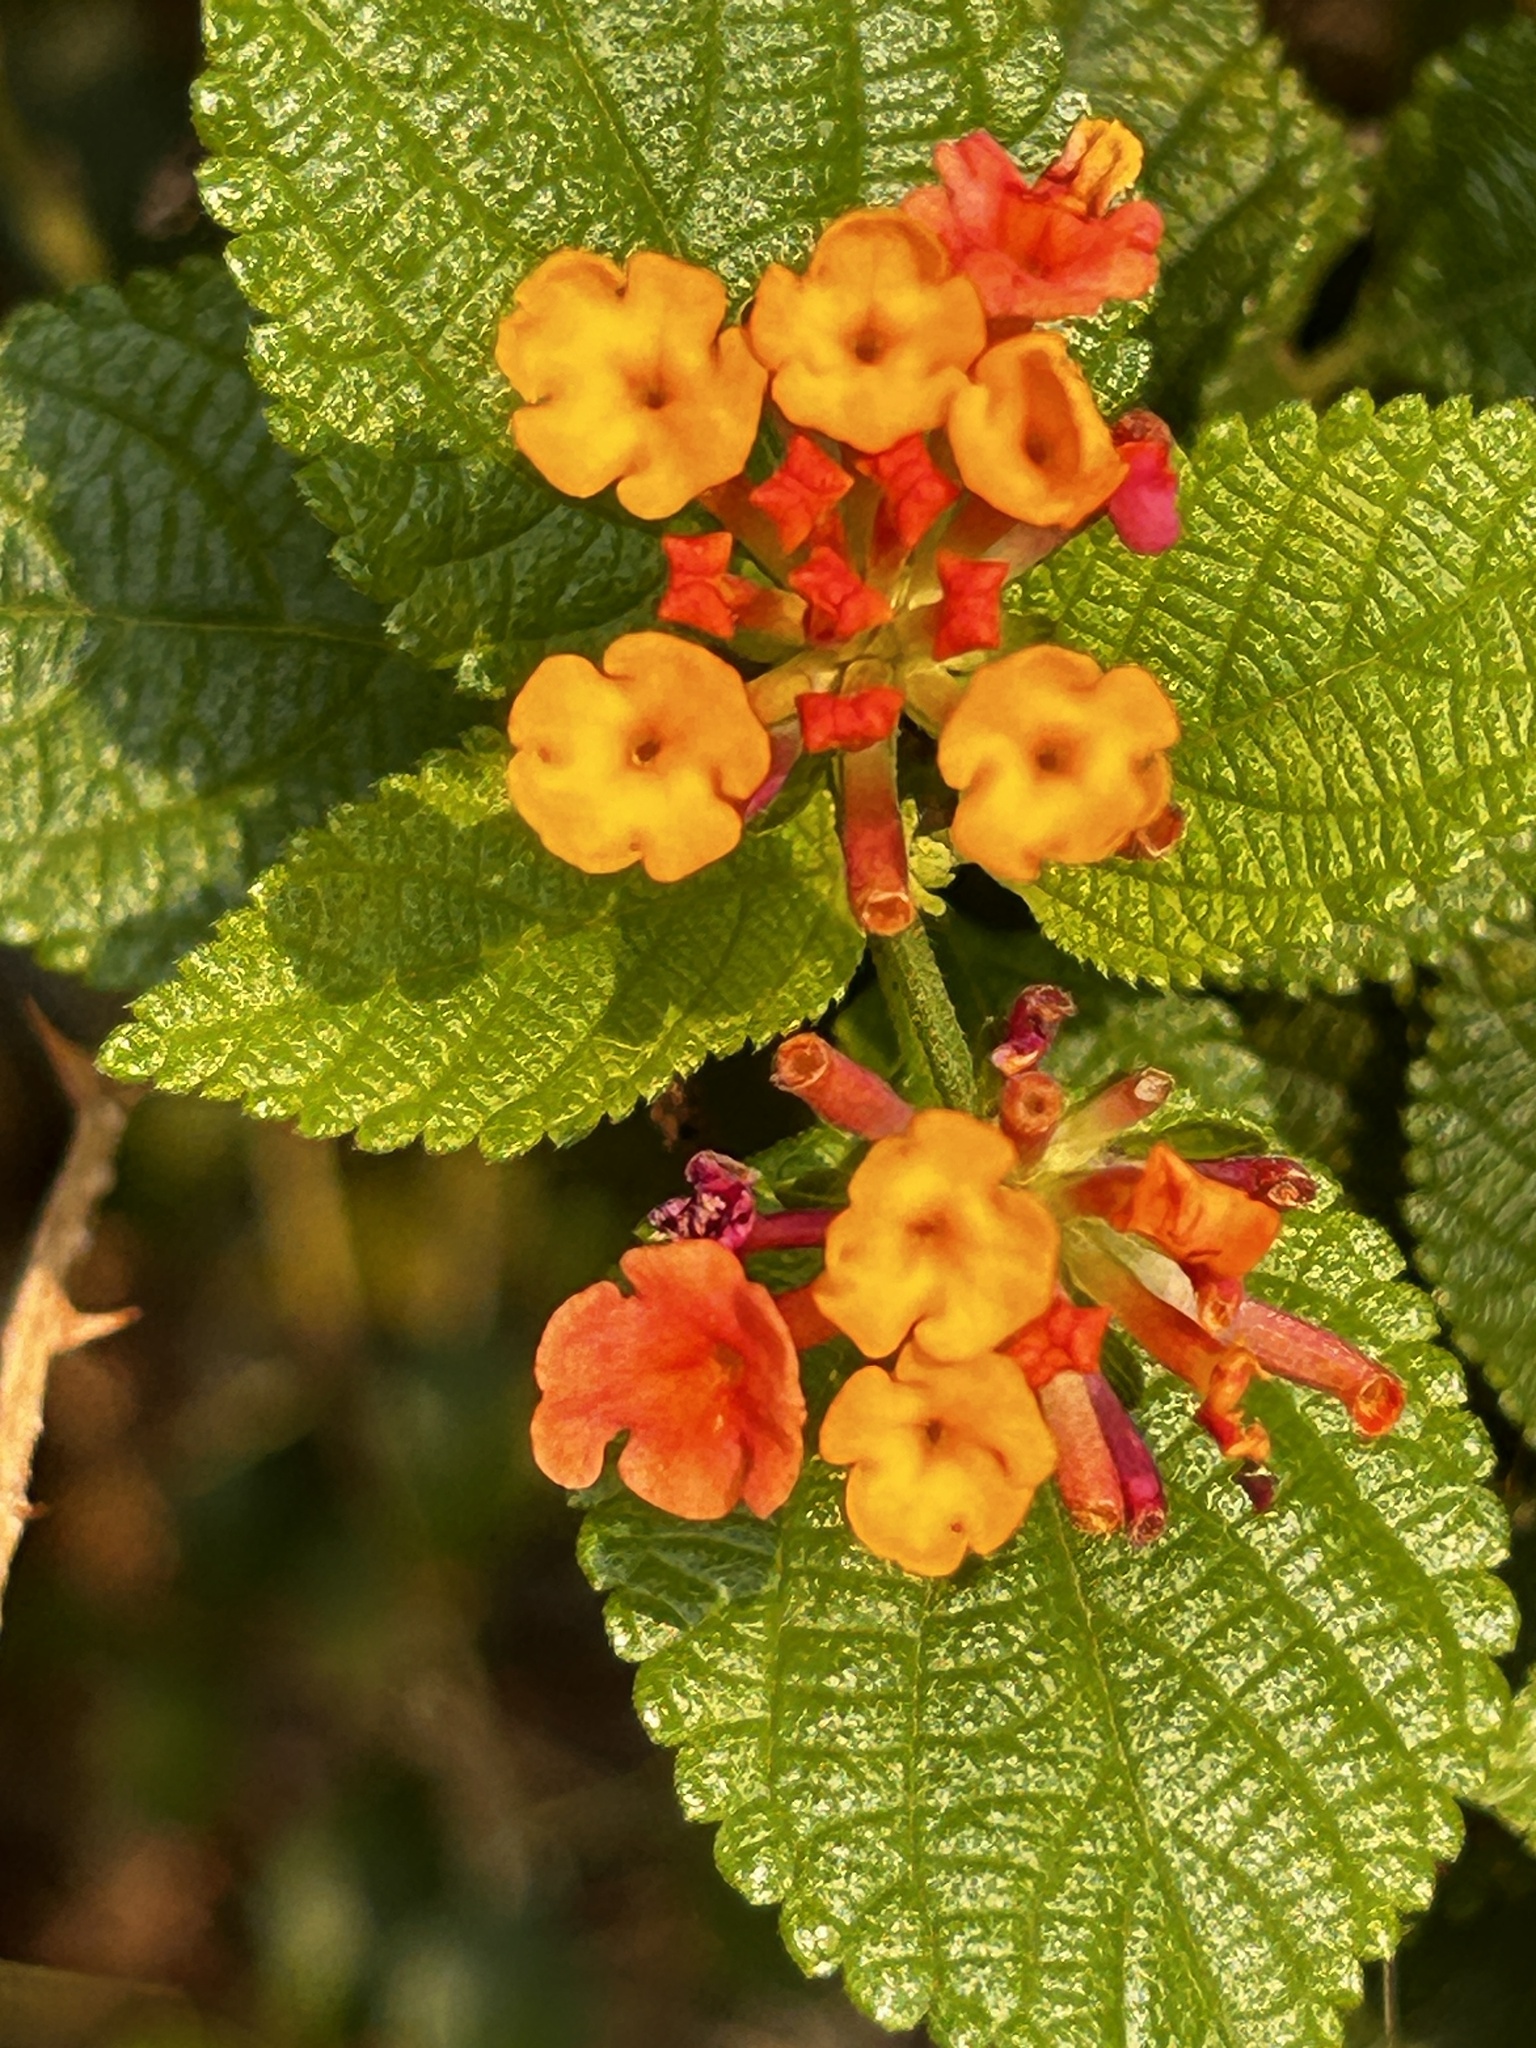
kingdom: Plantae
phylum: Tracheophyta
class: Magnoliopsida
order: Lamiales
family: Verbenaceae
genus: Lantana
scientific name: Lantana camara
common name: Lantana
